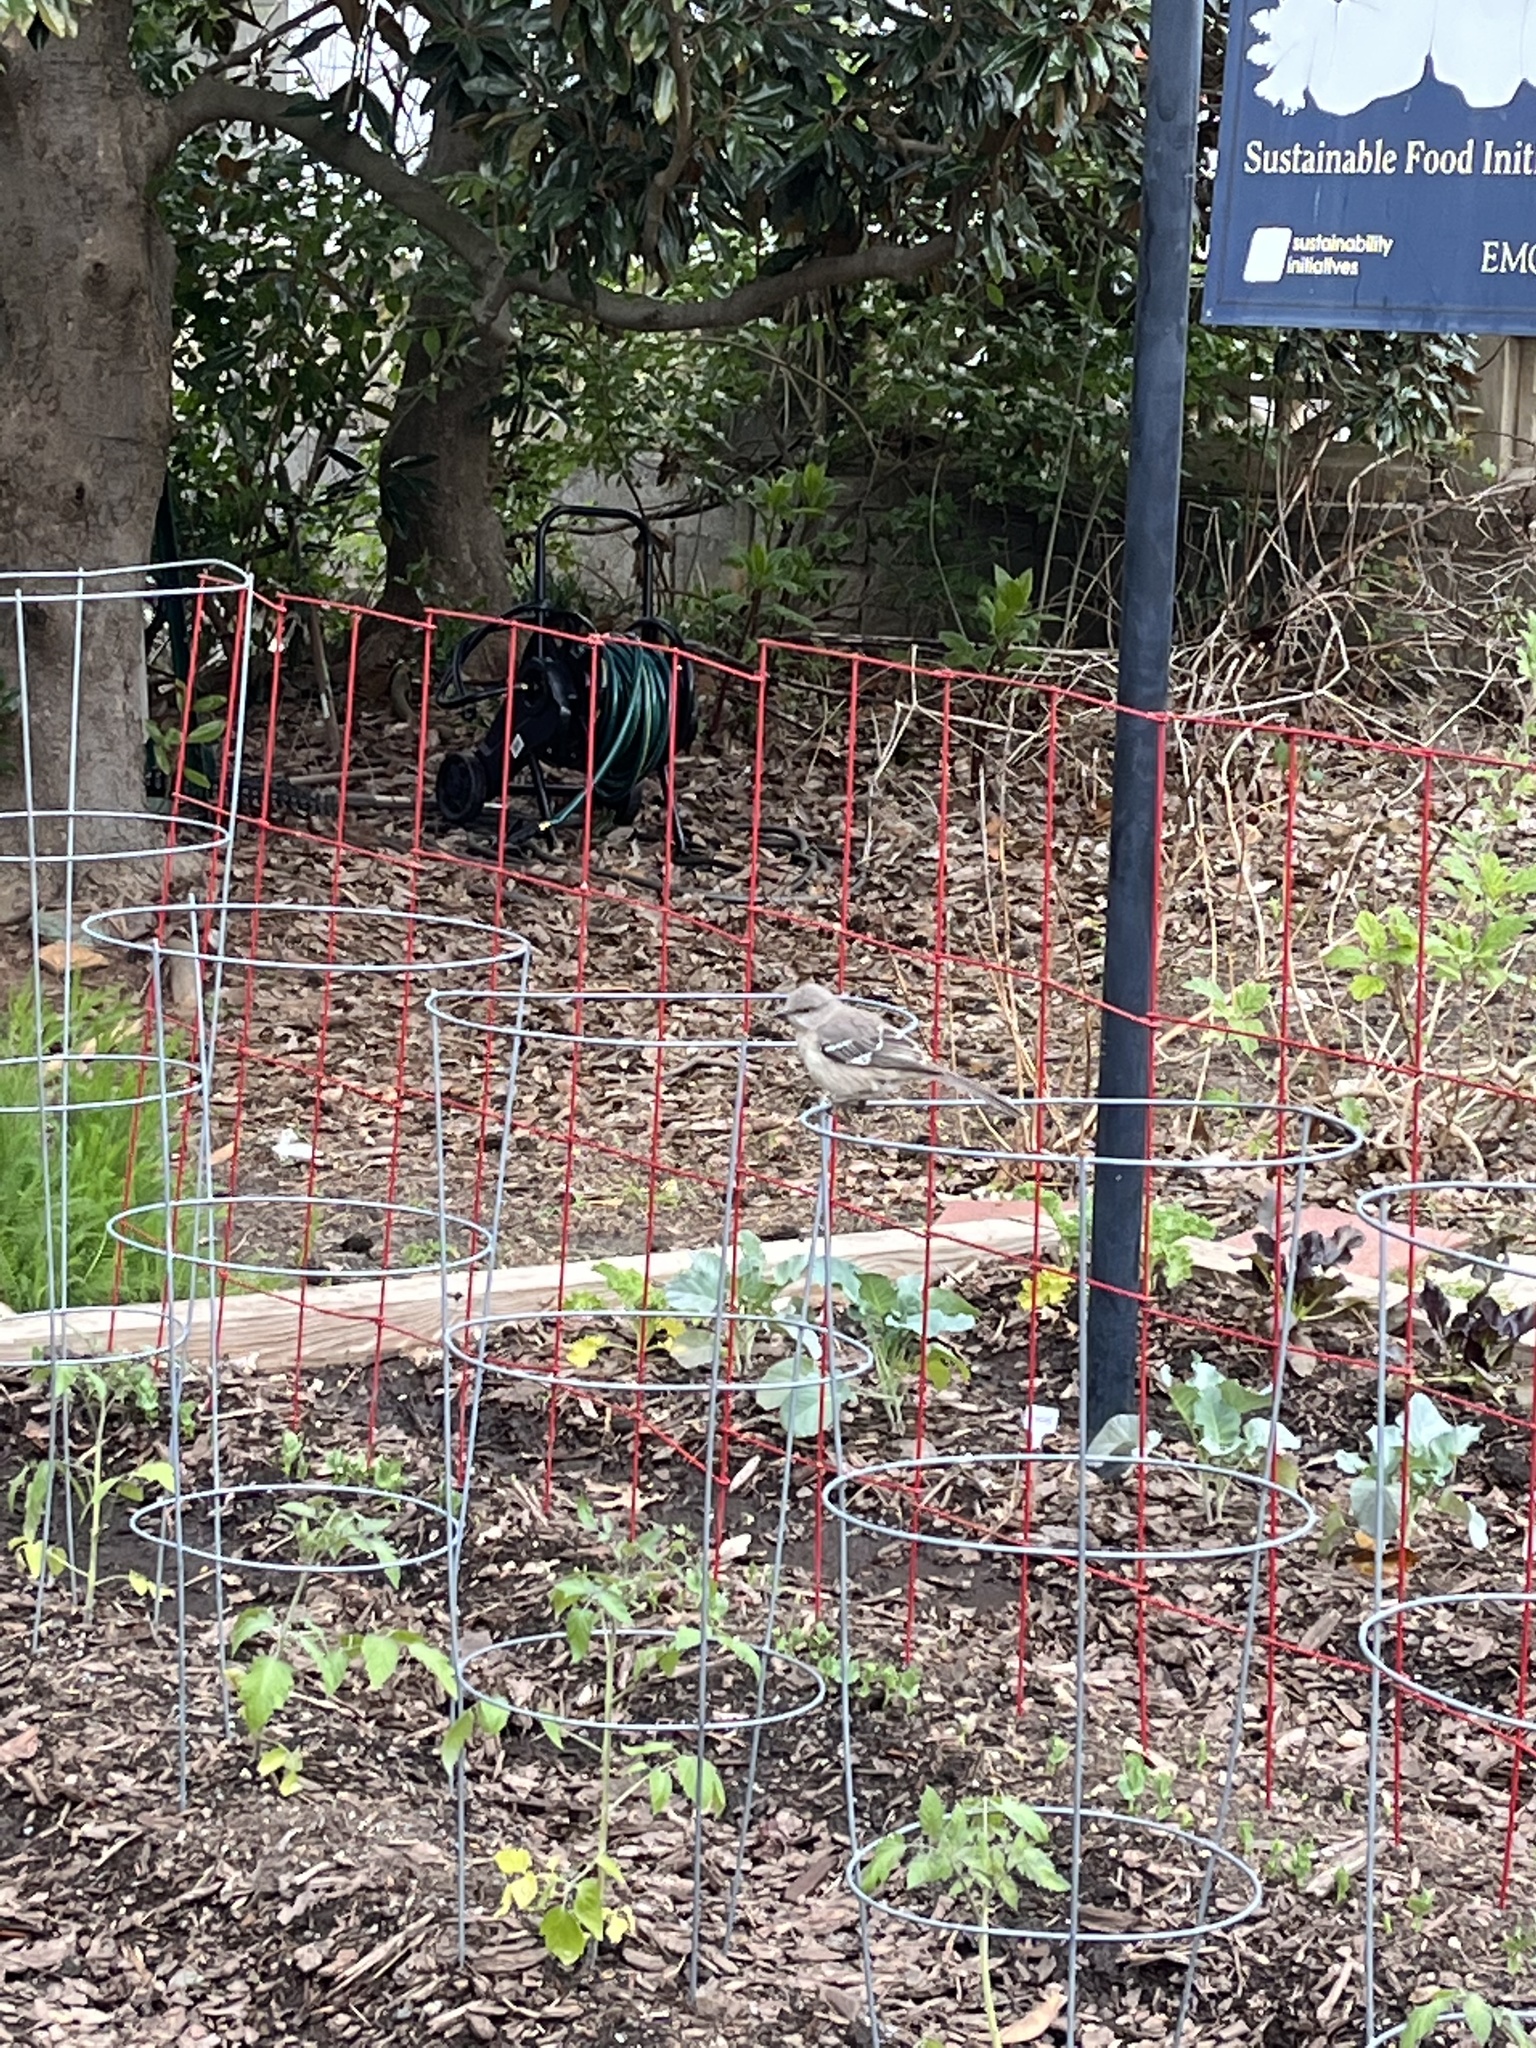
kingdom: Animalia
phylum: Chordata
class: Aves
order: Passeriformes
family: Mimidae
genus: Mimus
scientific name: Mimus polyglottos
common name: Northern mockingbird
